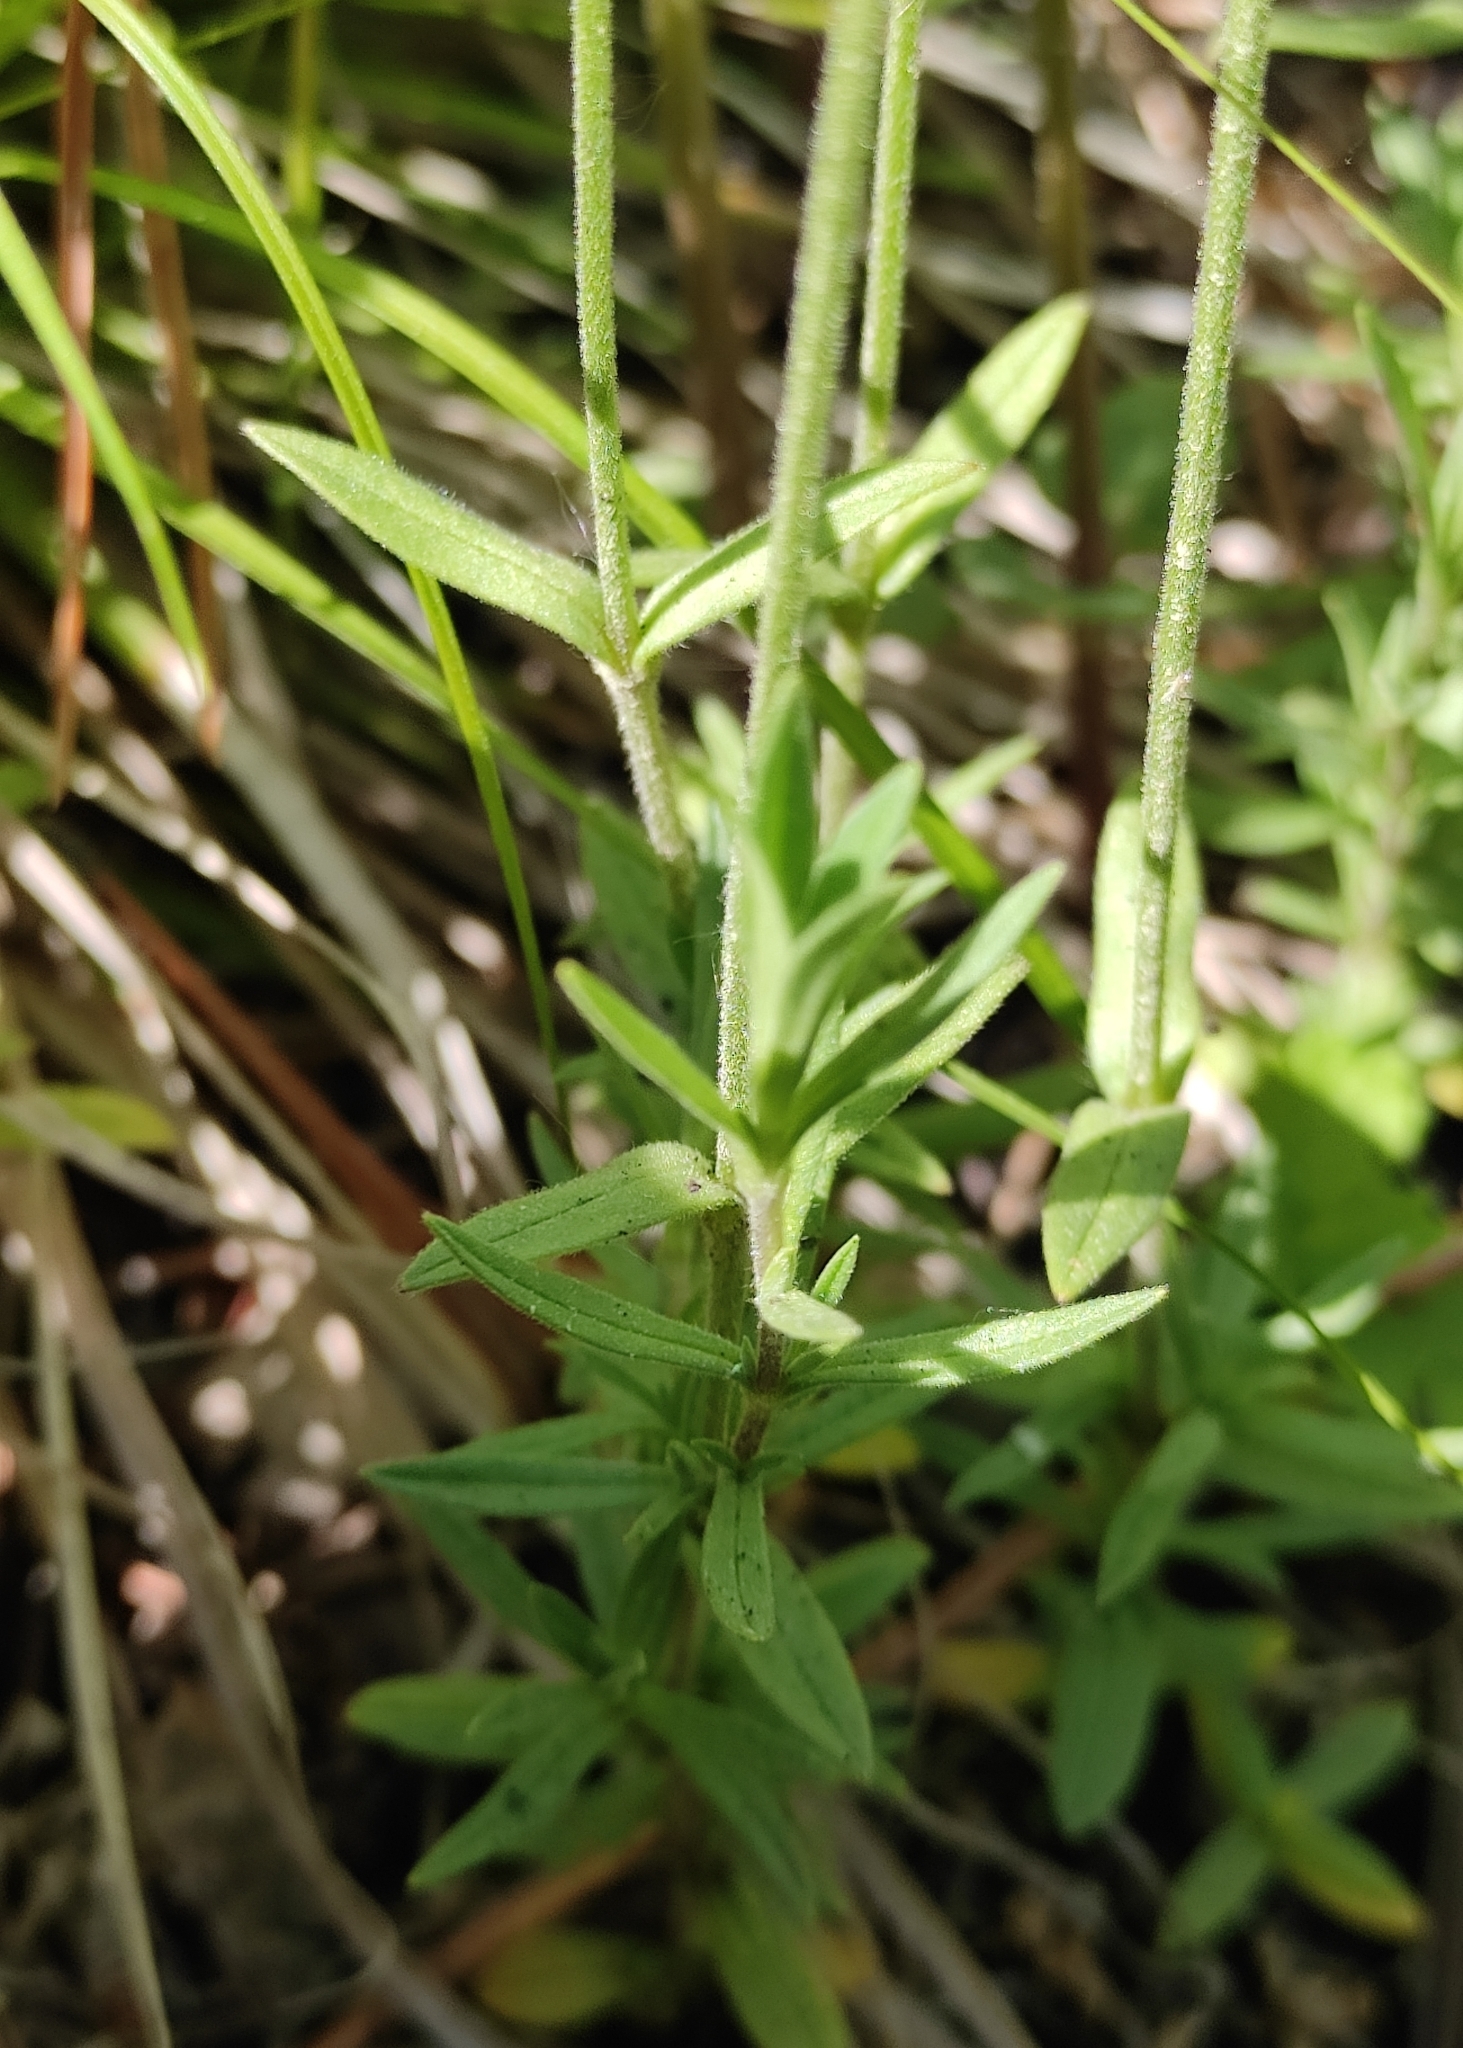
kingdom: Plantae
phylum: Tracheophyta
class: Magnoliopsida
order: Caryophyllales
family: Caryophyllaceae
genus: Cerastium
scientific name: Cerastium arvense
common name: Field mouse-ear
